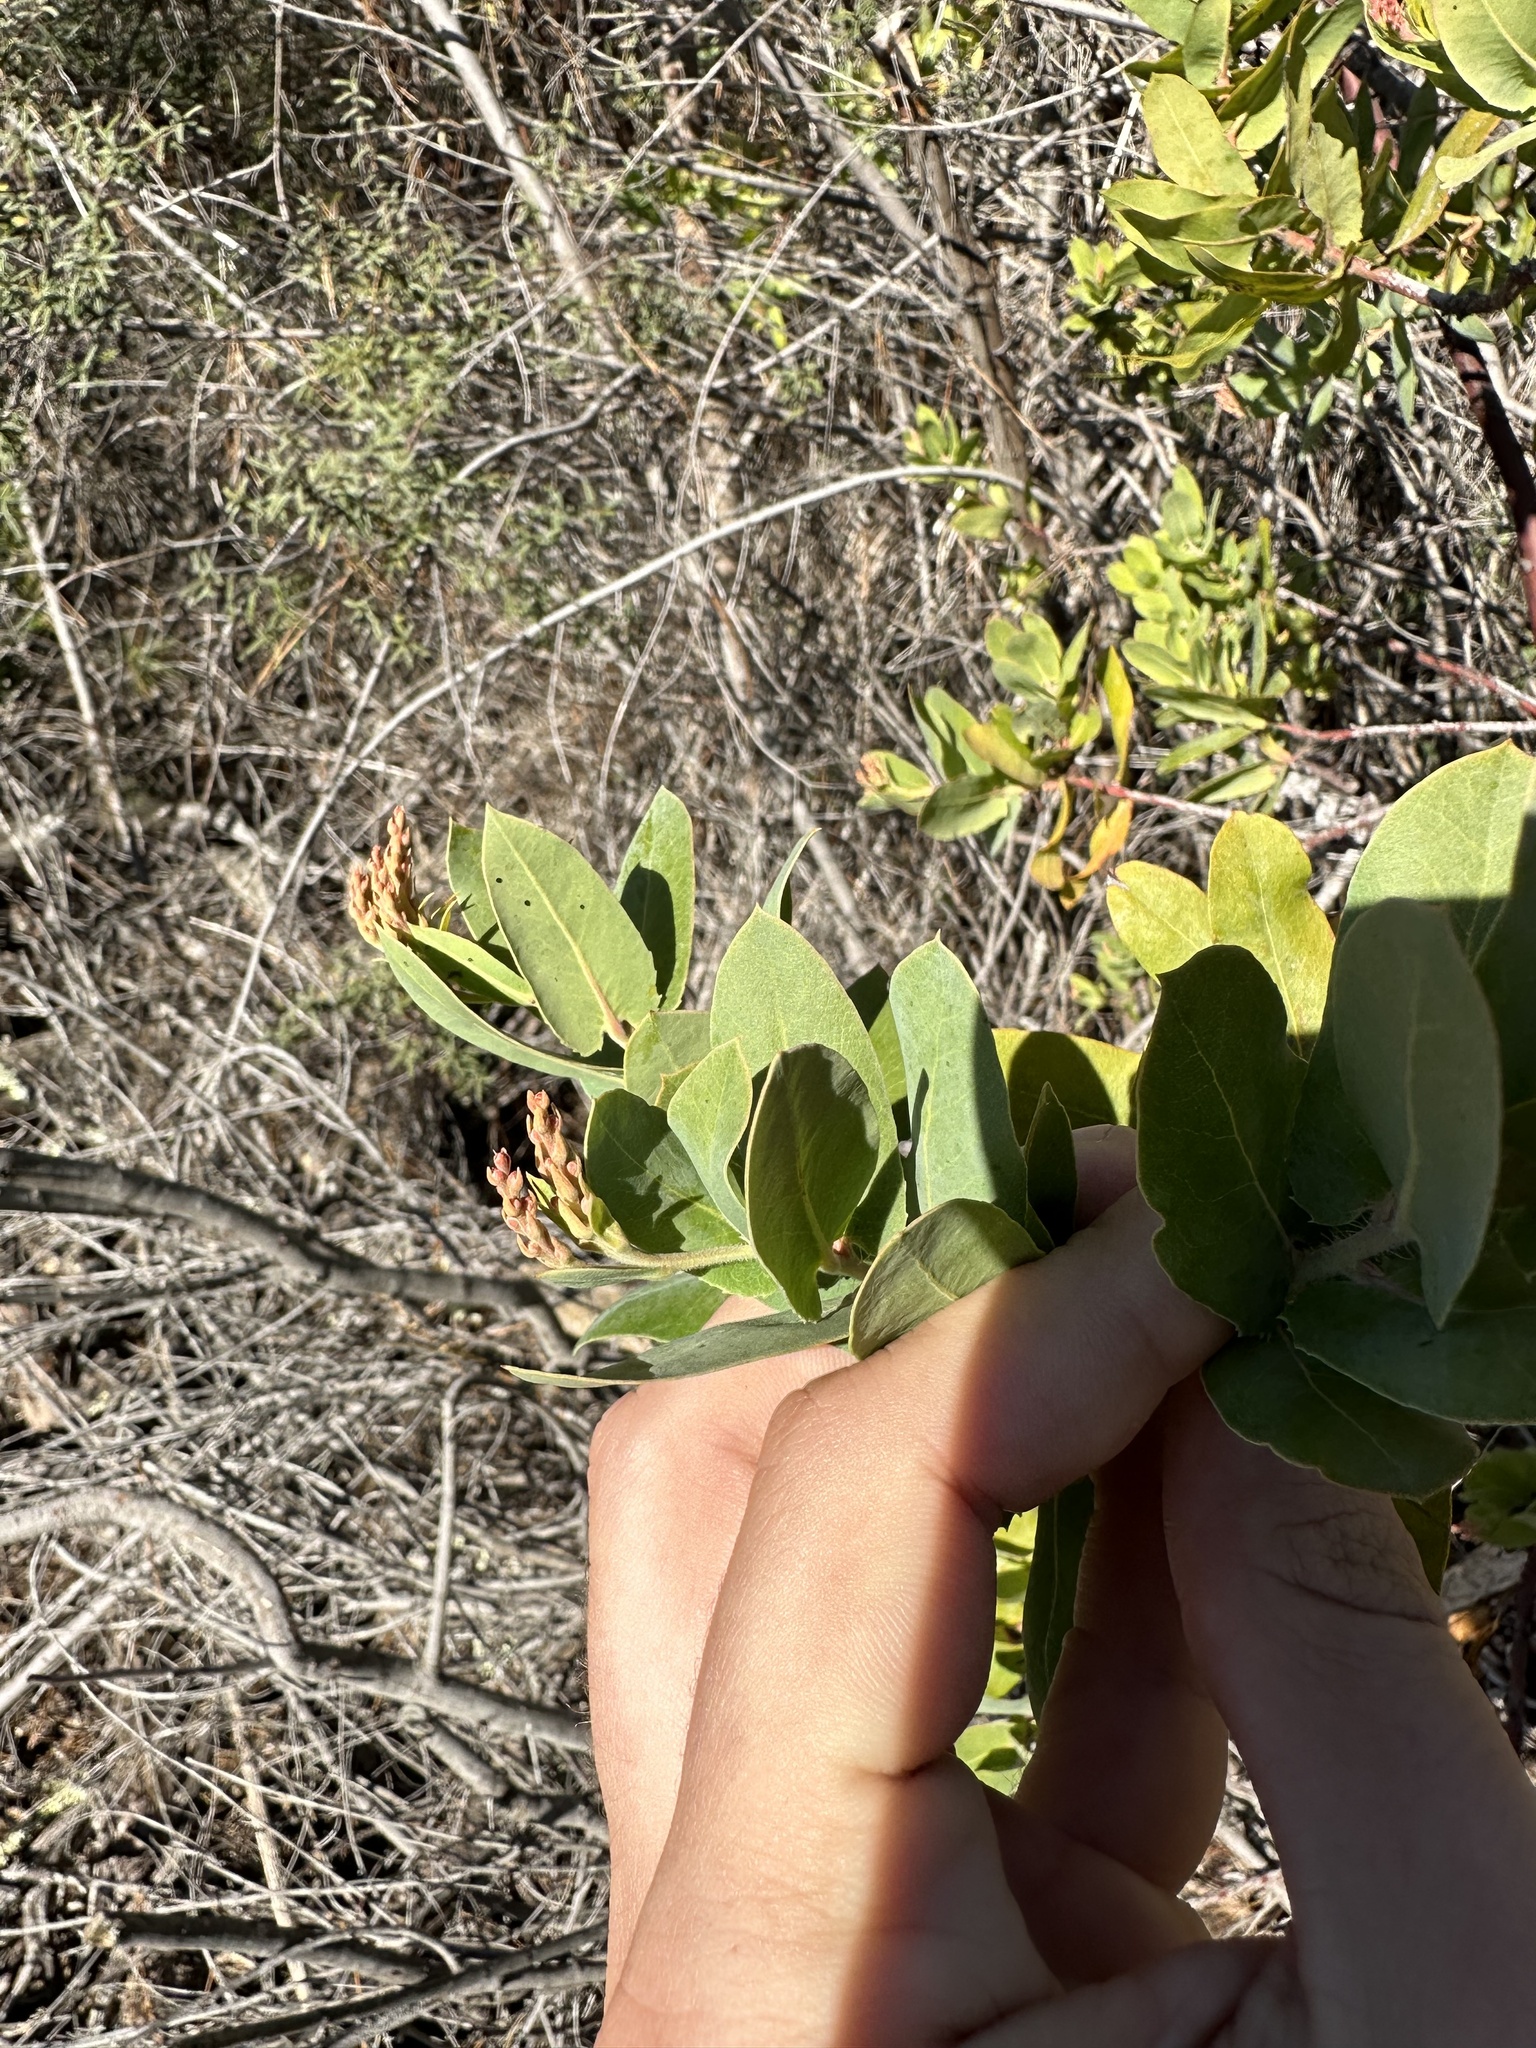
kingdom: Plantae
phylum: Tracheophyta
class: Magnoliopsida
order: Ericales
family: Ericaceae
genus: Arctostaphylos
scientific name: Arctostaphylos andersonii
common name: Santa cruz manzanita
